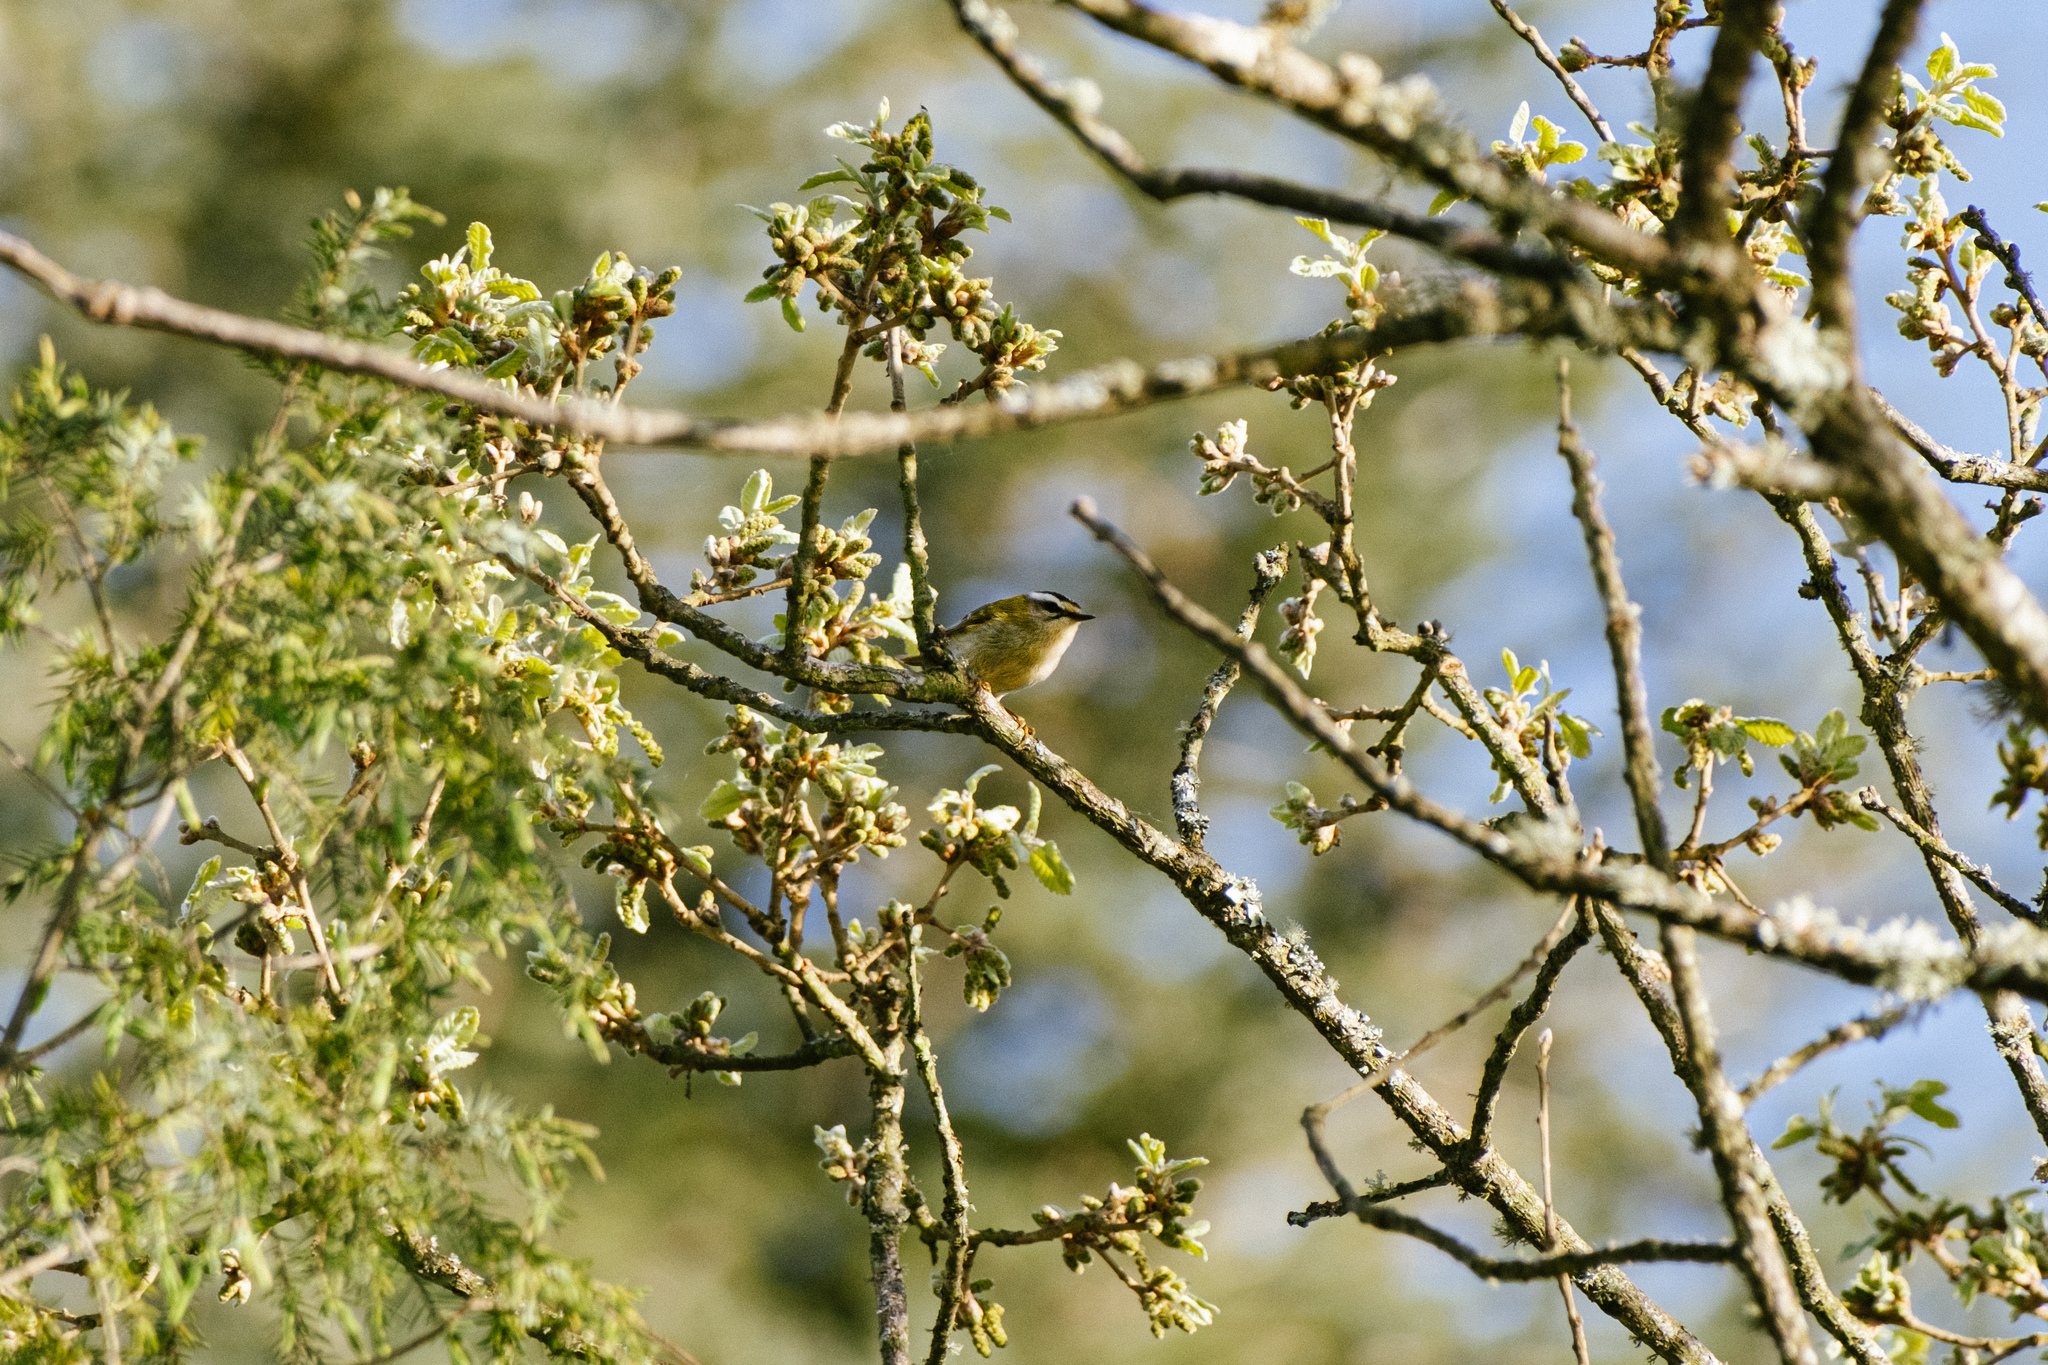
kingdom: Animalia
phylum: Chordata
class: Aves
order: Passeriformes
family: Regulidae
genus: Regulus
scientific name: Regulus ignicapilla
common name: Firecrest
